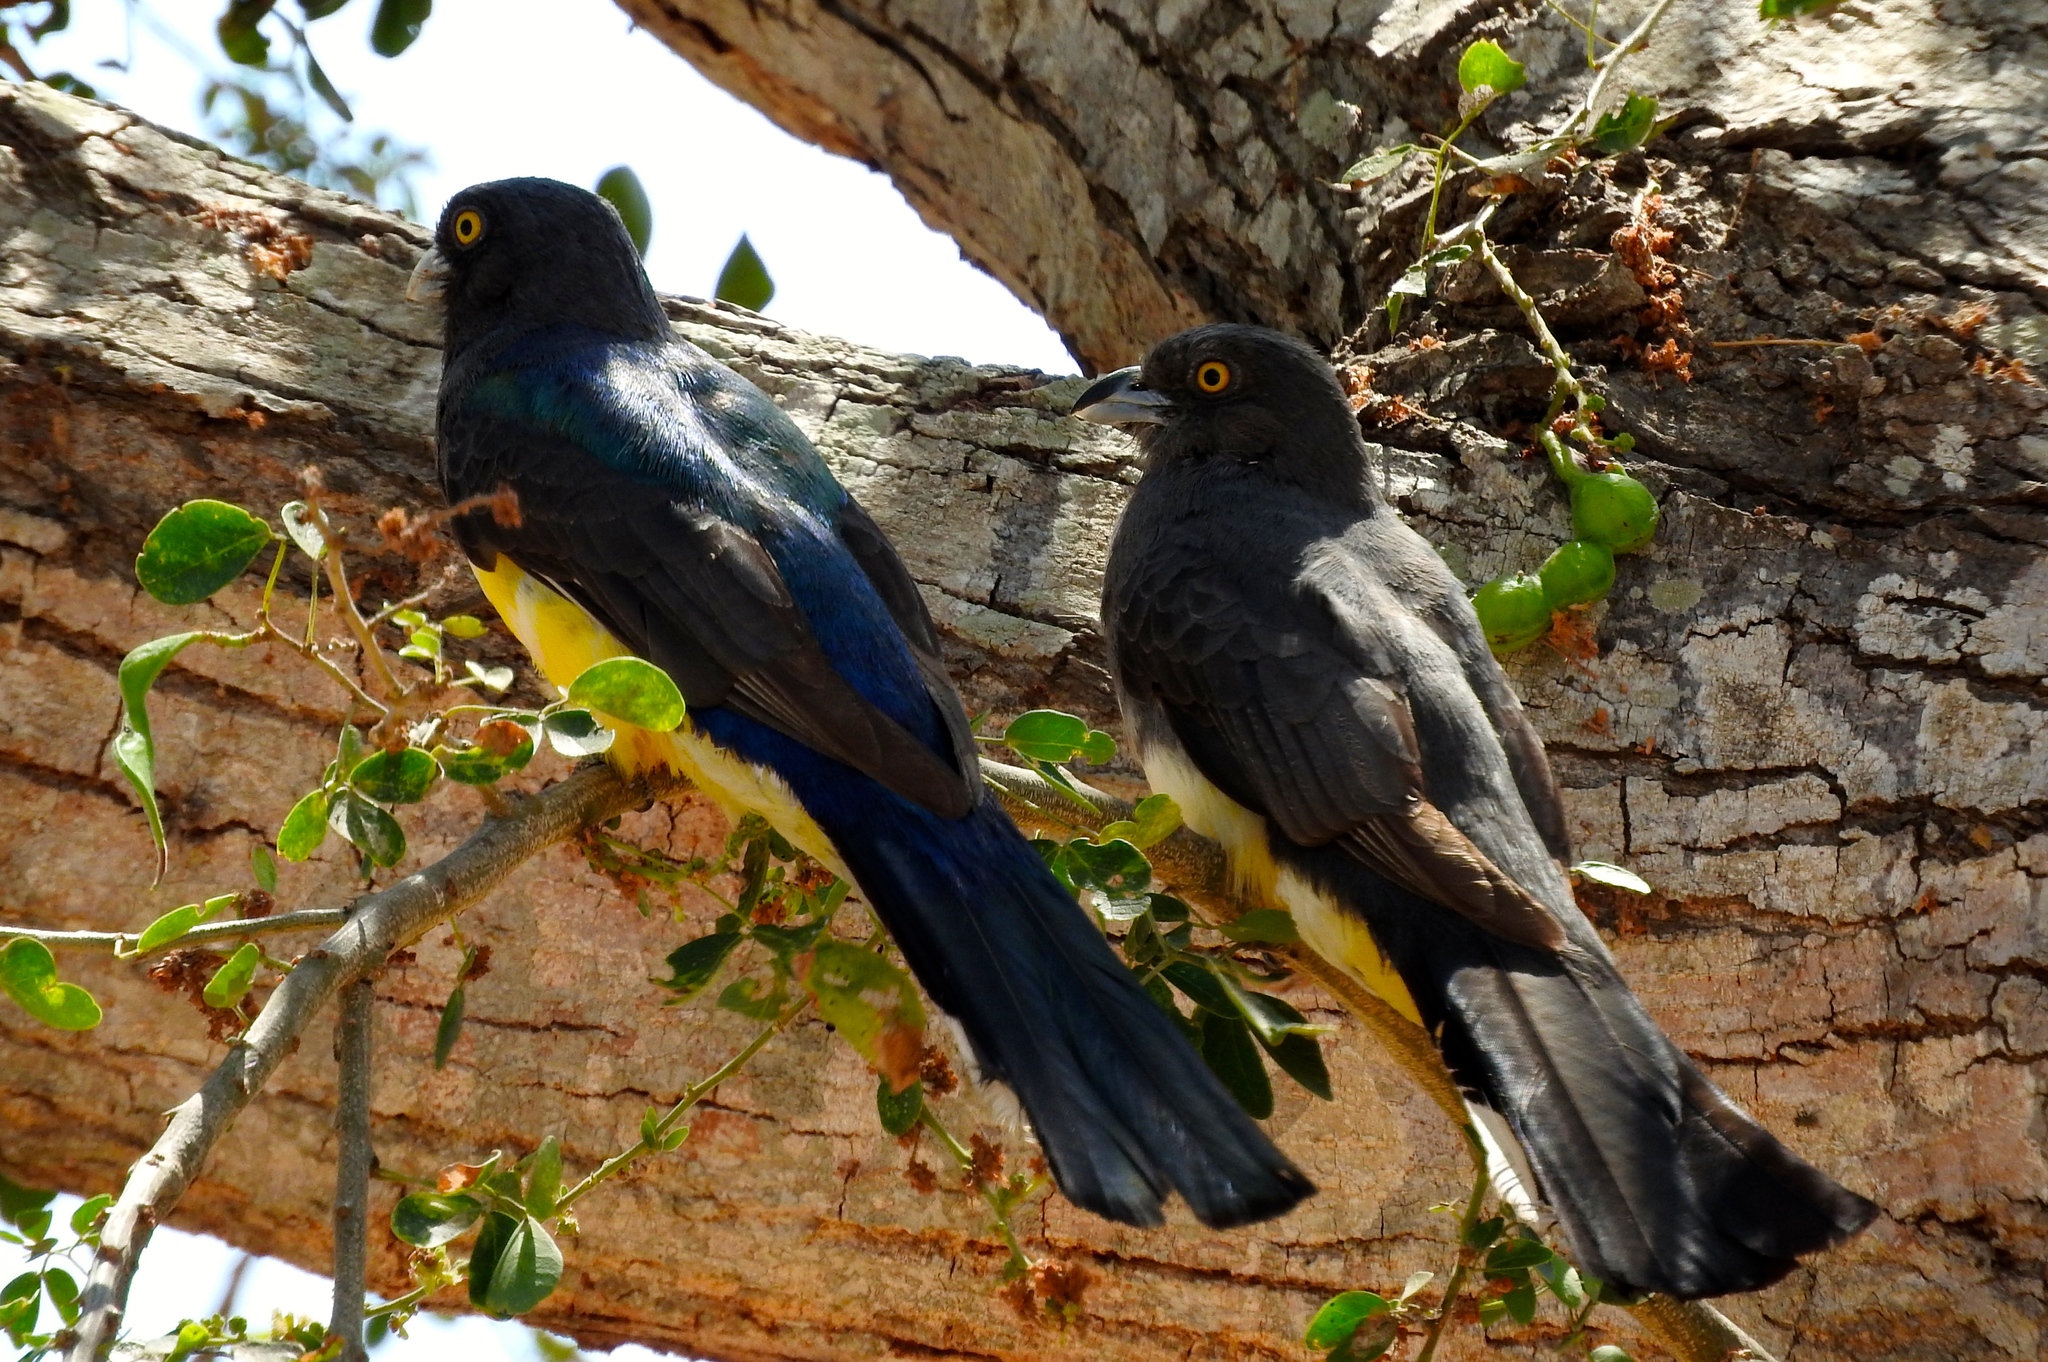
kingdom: Animalia
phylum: Chordata
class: Aves
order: Trogoniformes
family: Trogonidae
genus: Trogon
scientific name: Trogon citreolus
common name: Citreoline trogon
